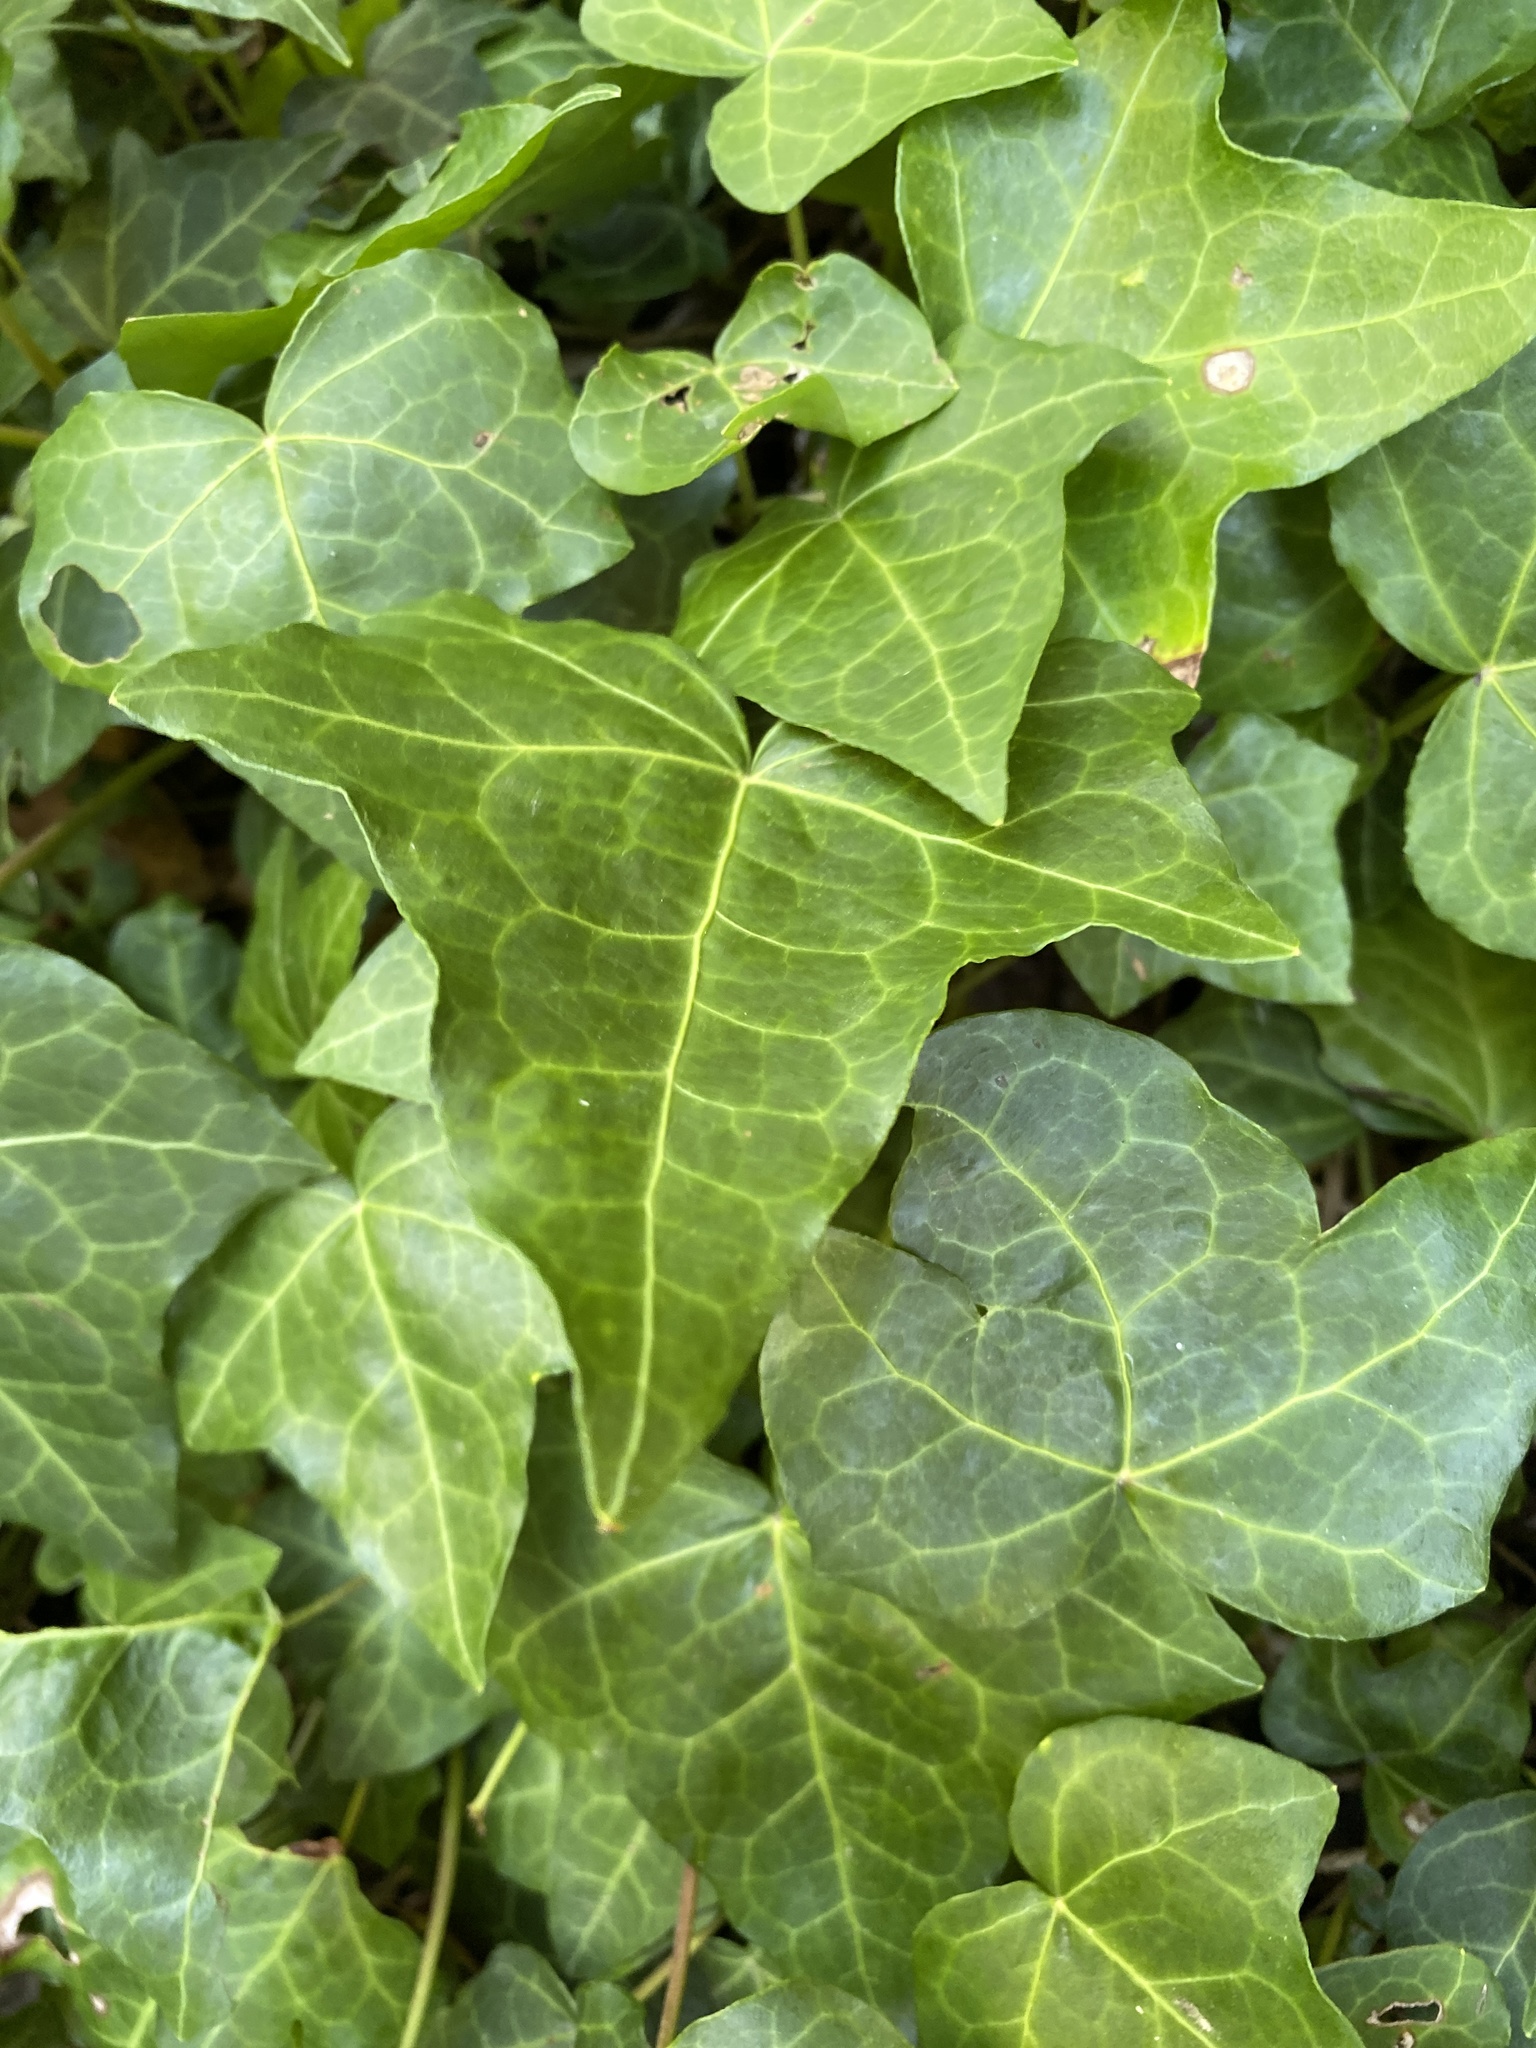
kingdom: Plantae
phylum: Tracheophyta
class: Magnoliopsida
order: Apiales
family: Araliaceae
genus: Hedera
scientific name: Hedera helix
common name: Ivy
